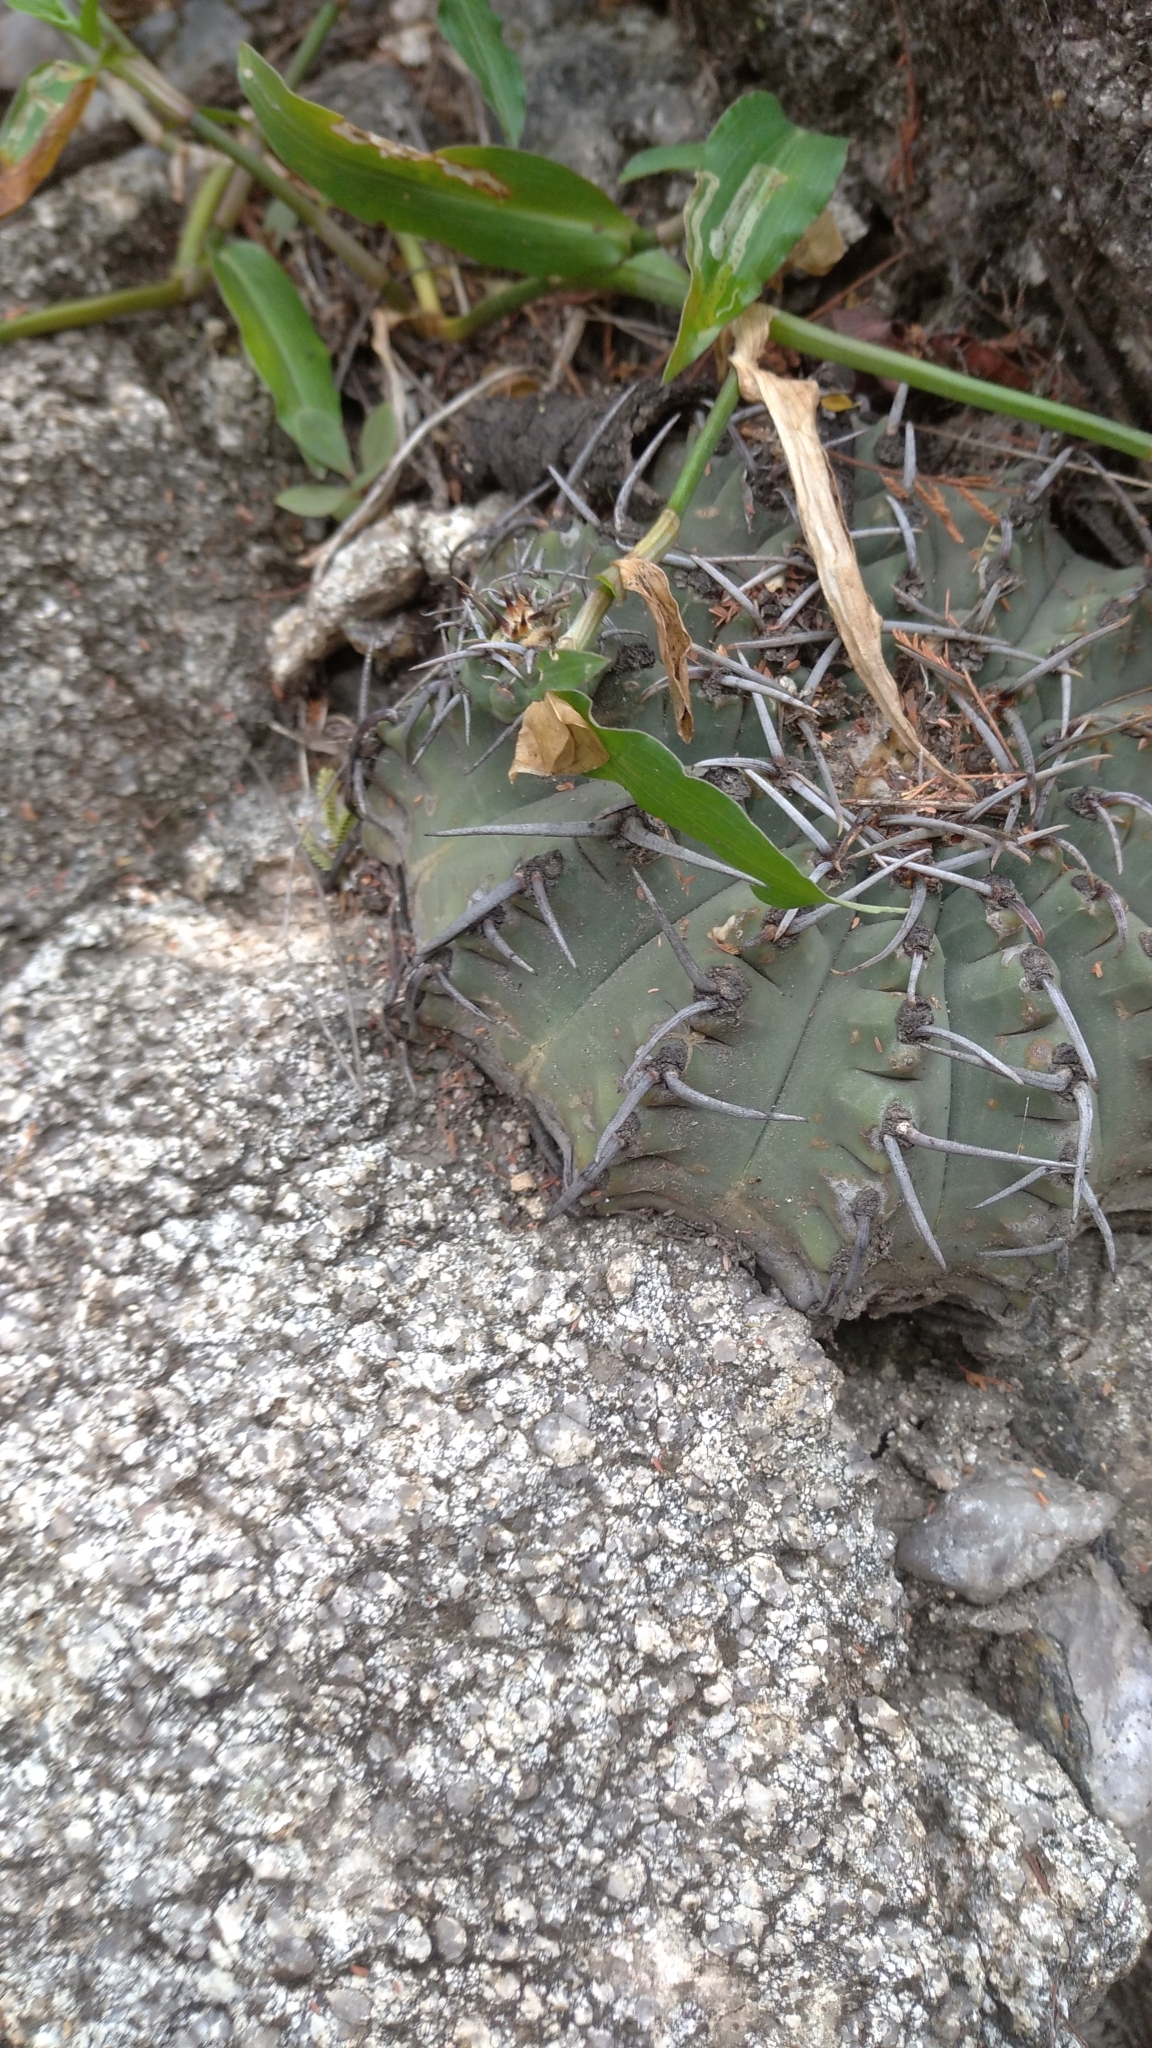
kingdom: Plantae
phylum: Tracheophyta
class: Magnoliopsida
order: Caryophyllales
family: Cactaceae
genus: Gymnocalycium
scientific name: Gymnocalycium ochoterenae
